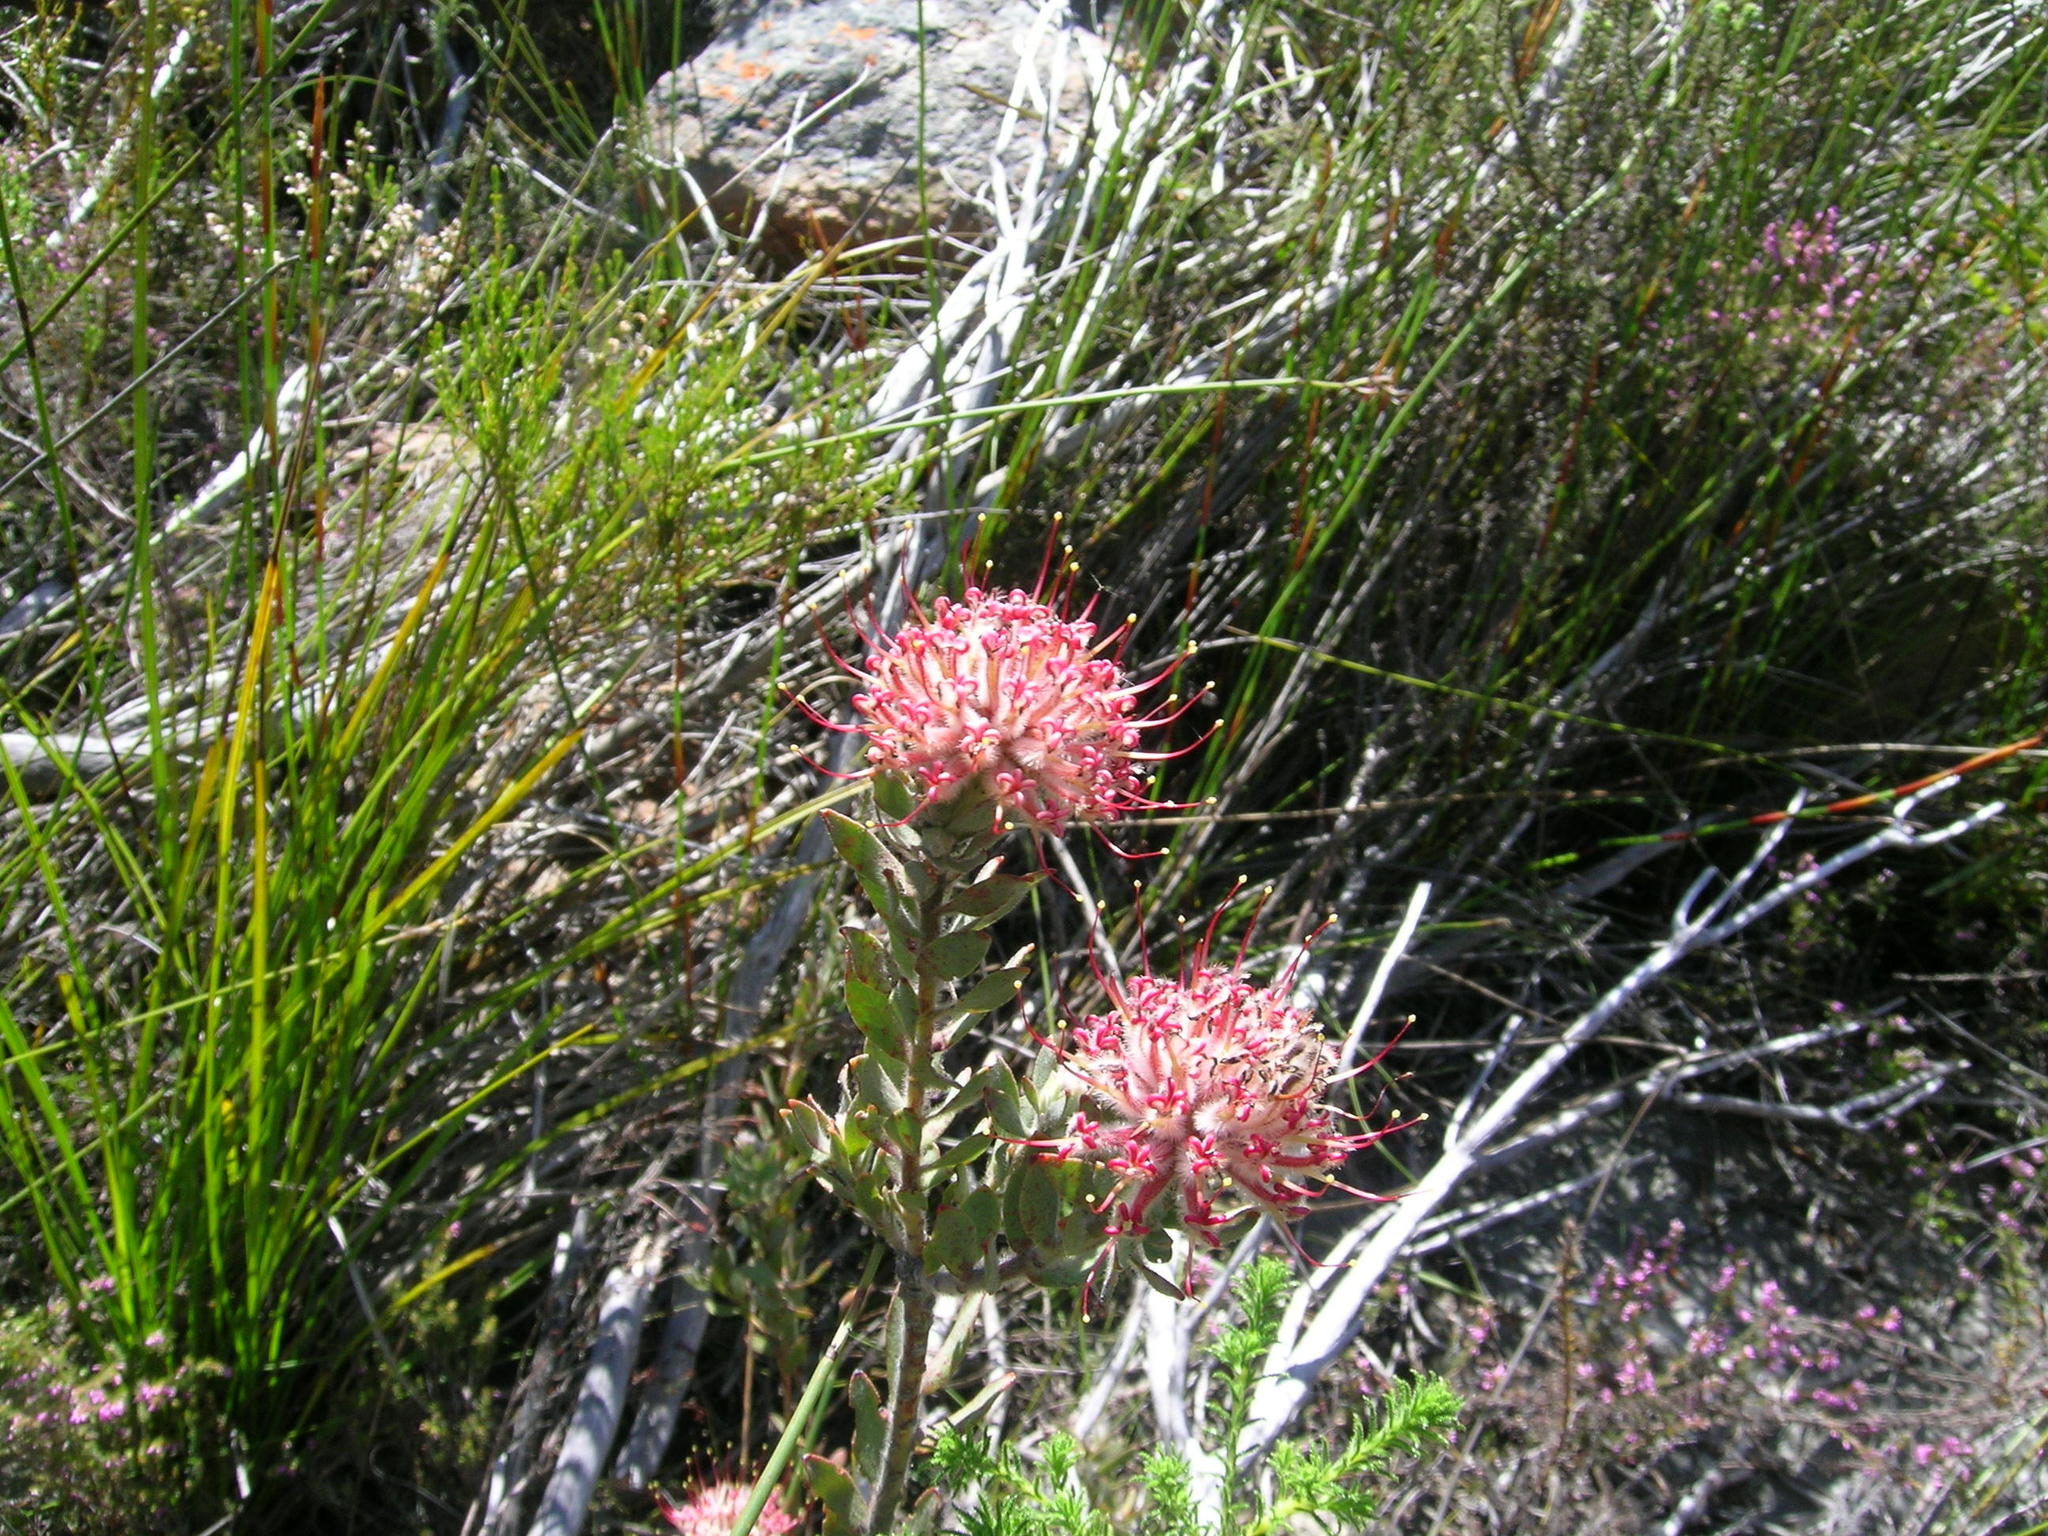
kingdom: Plantae
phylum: Tracheophyta
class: Magnoliopsida
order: Proteales
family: Proteaceae
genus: Leucospermum
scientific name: Leucospermum calligerum
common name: Arid pincushion
